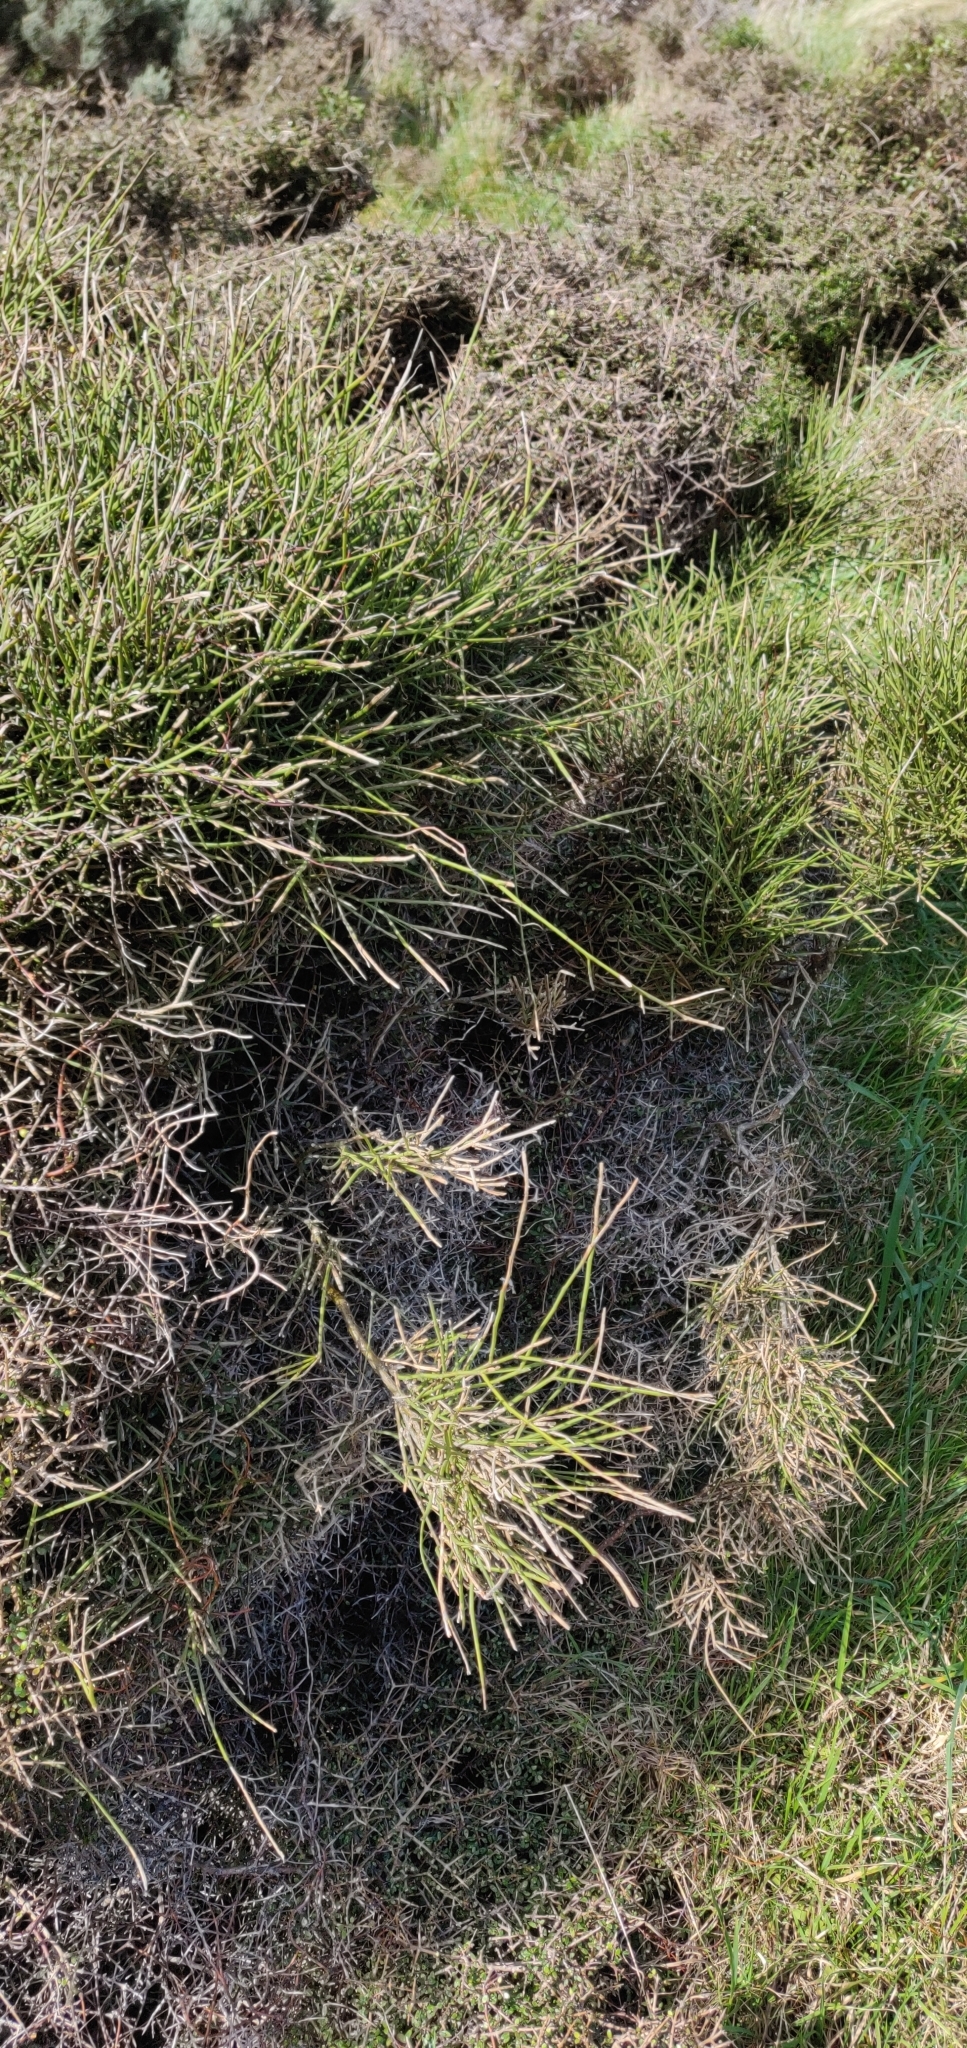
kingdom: Plantae
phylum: Tracheophyta
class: Magnoliopsida
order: Fabales
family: Fabaceae
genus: Carmichaelia
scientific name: Carmichaelia australis
